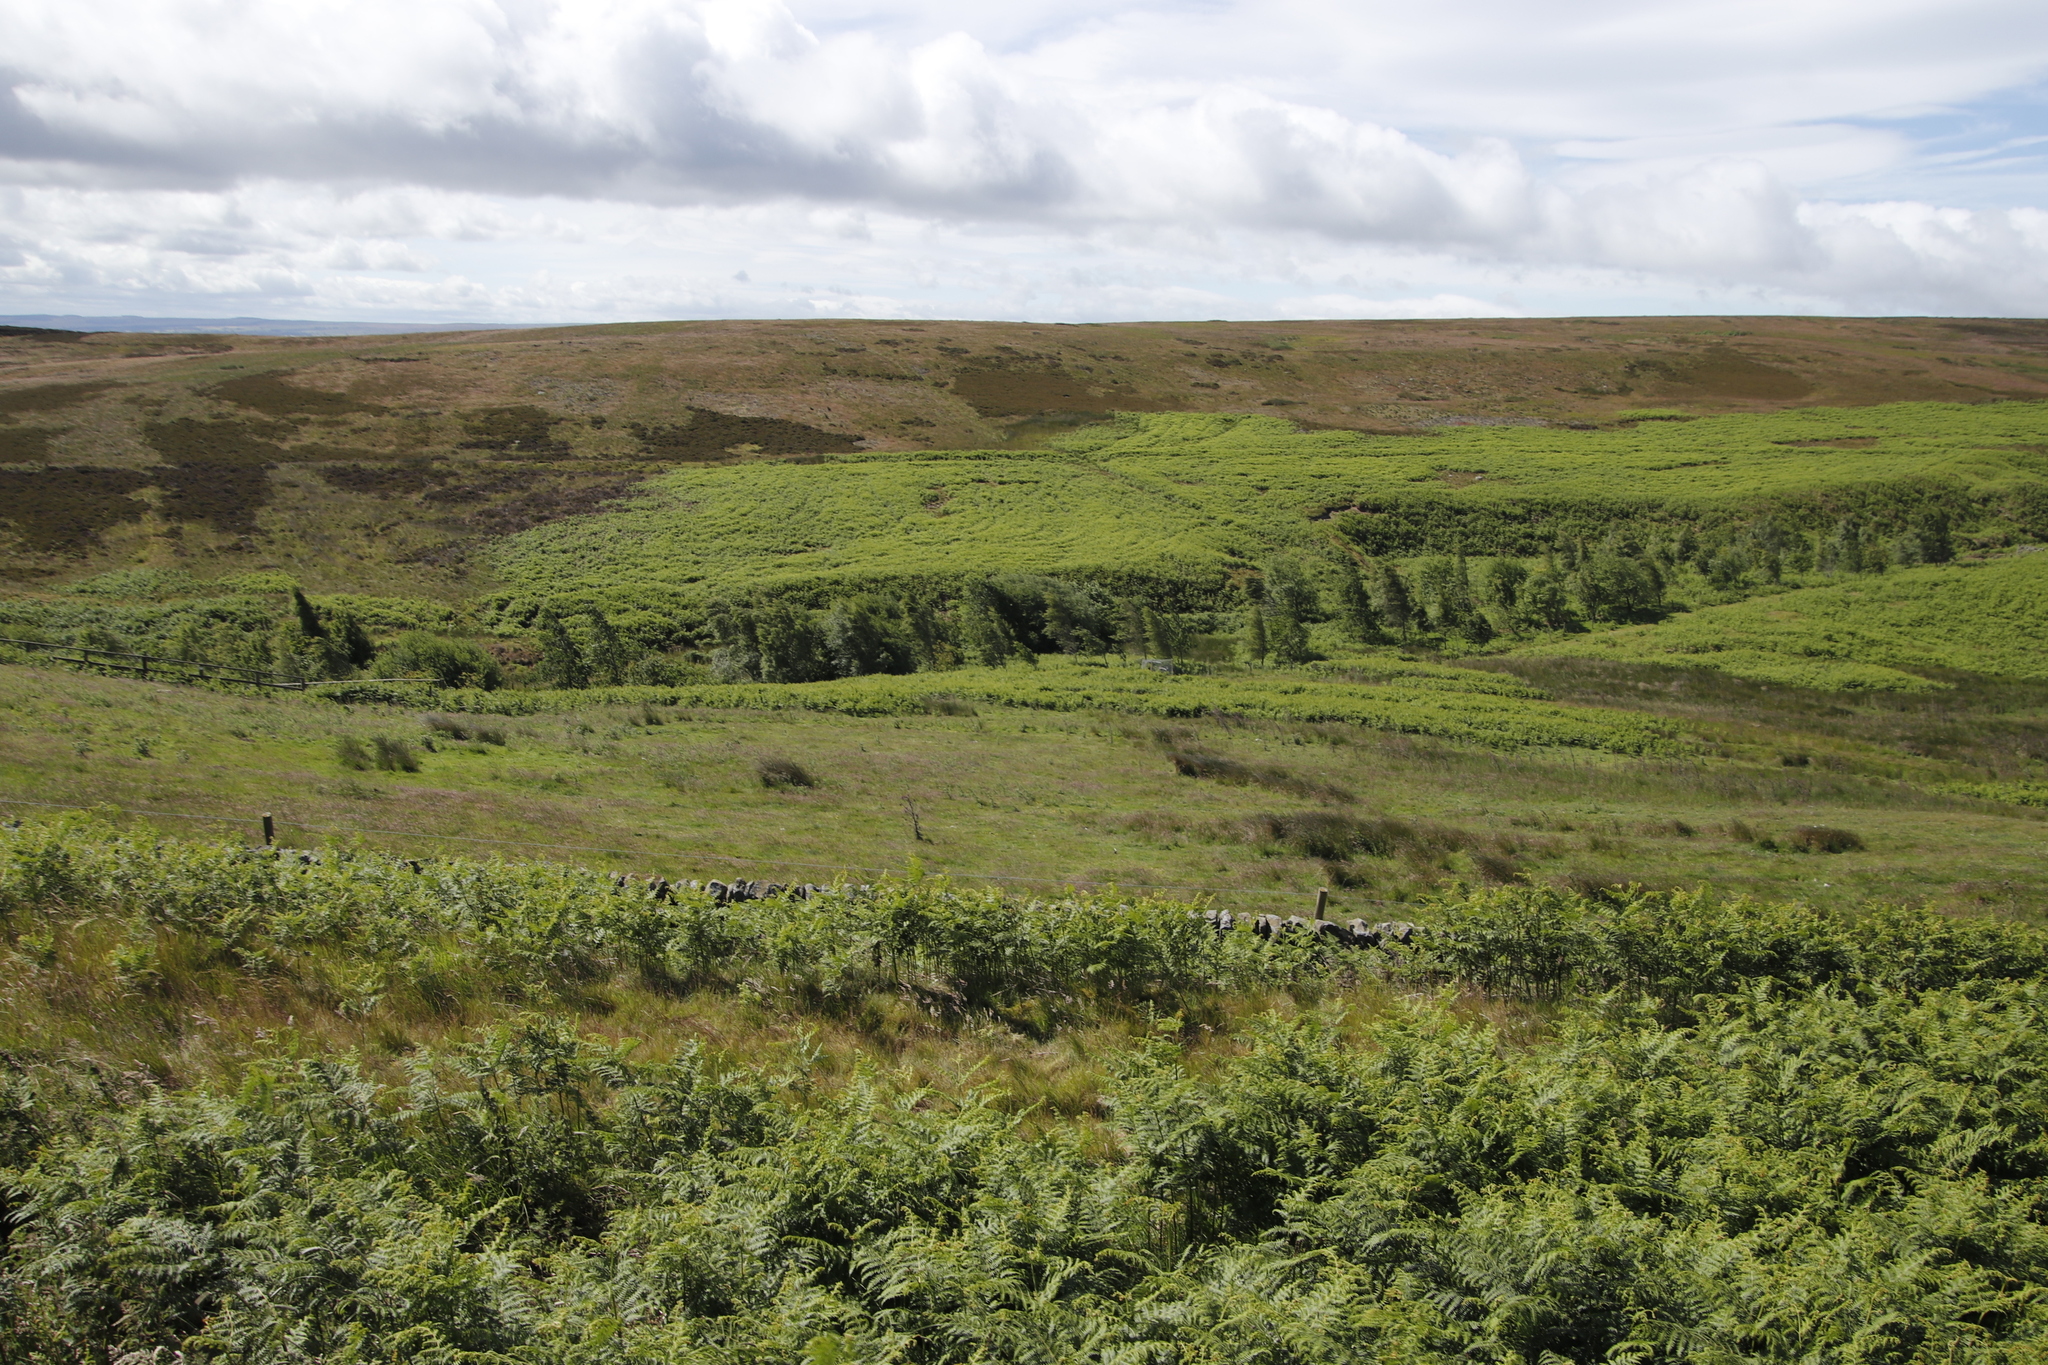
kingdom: Plantae
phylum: Tracheophyta
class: Polypodiopsida
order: Polypodiales
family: Dennstaedtiaceae
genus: Pteridium
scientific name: Pteridium aquilinum
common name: Bracken
